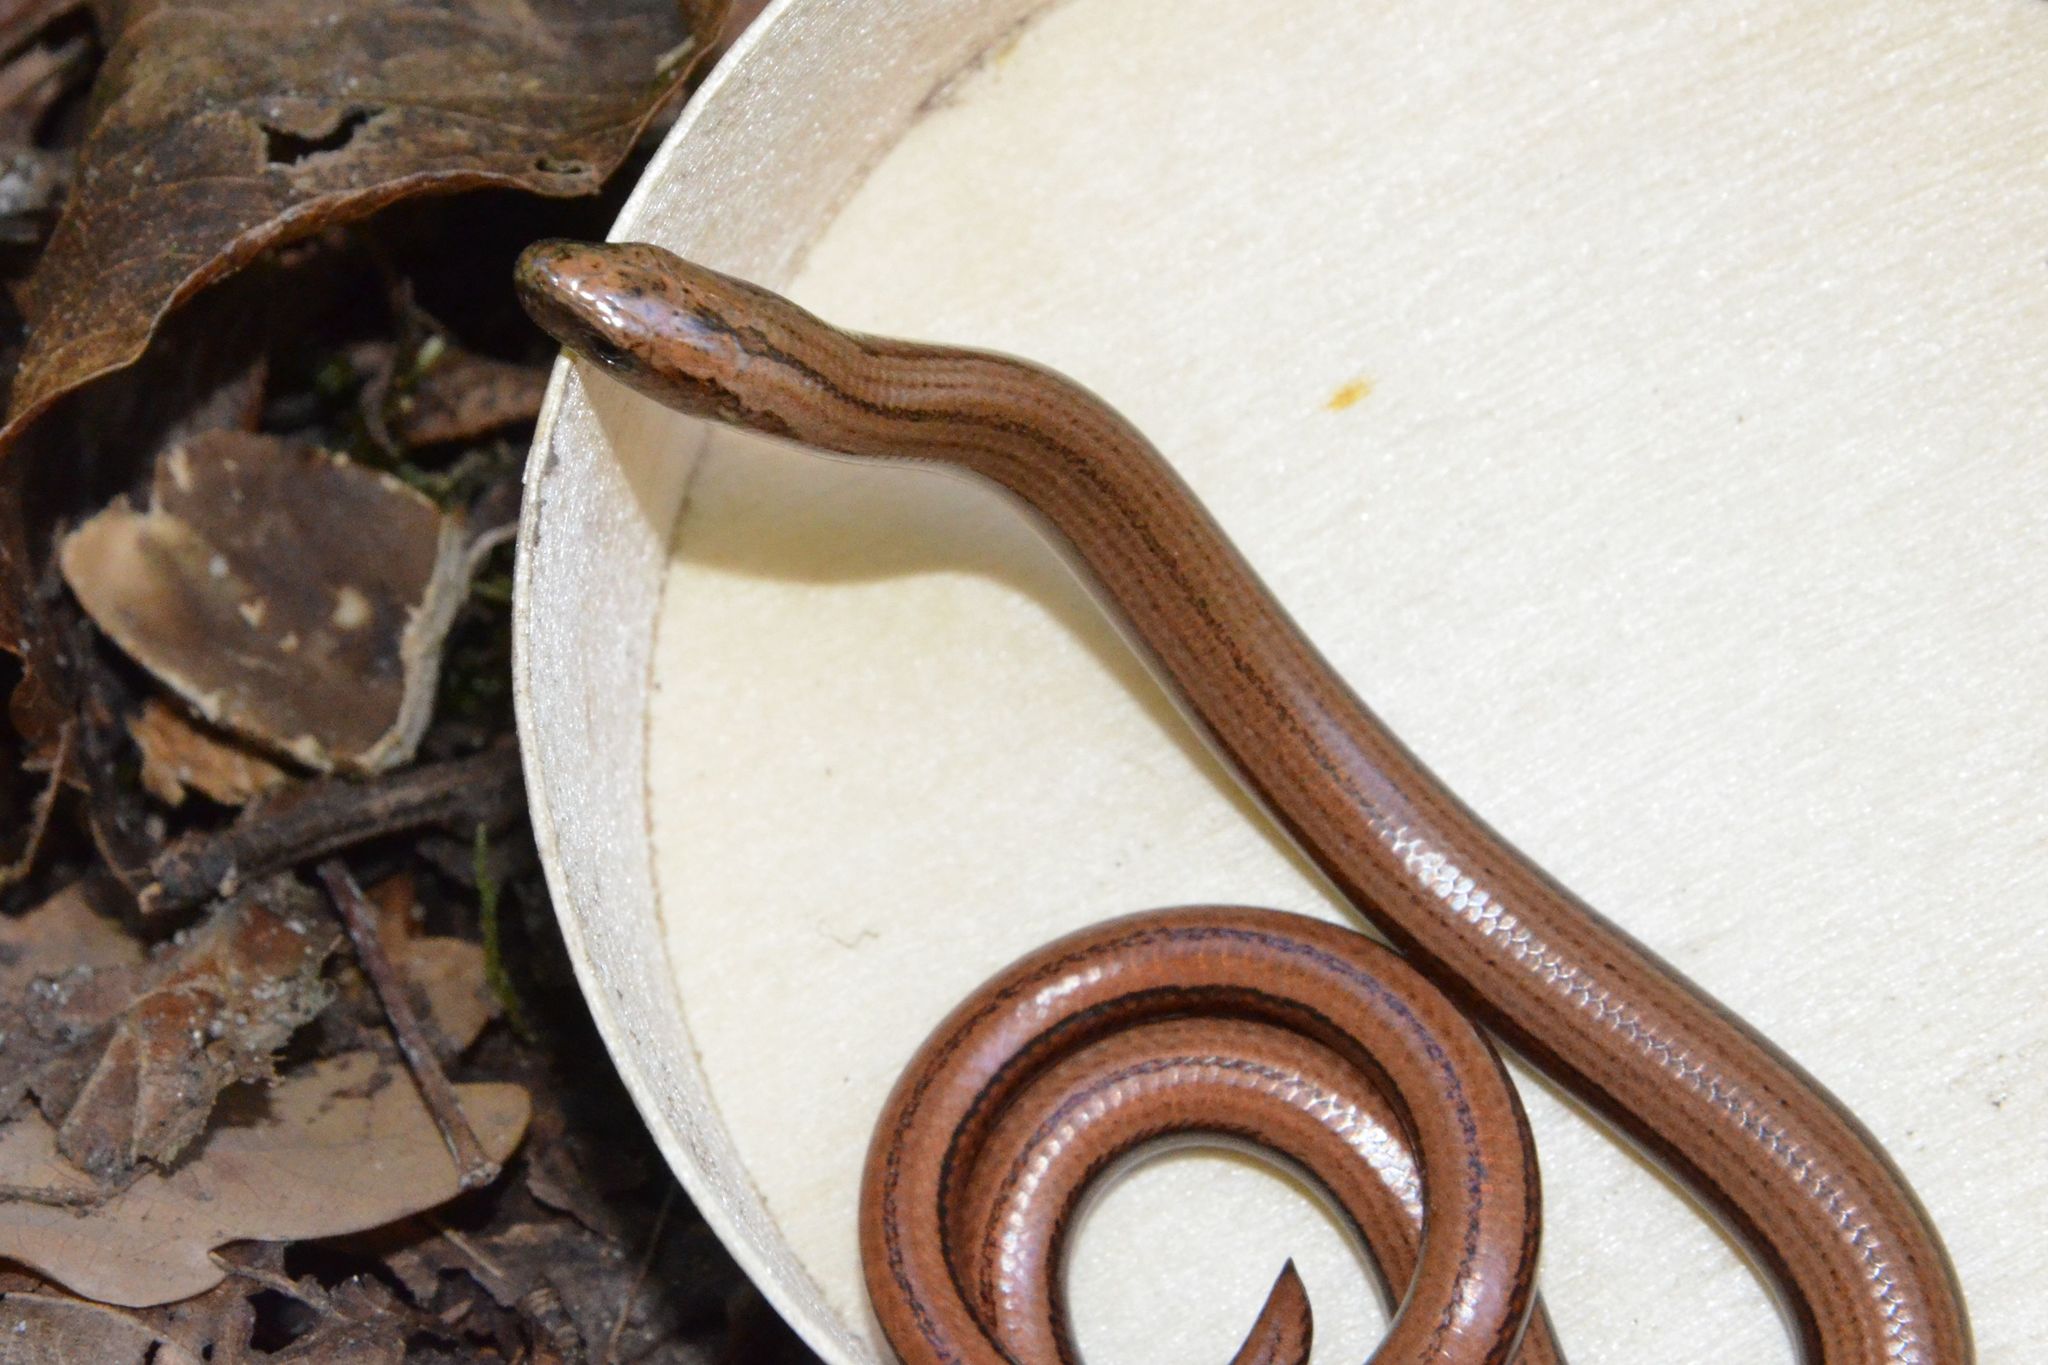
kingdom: Animalia
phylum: Chordata
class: Squamata
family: Anguidae
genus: Anguis
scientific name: Anguis fragilis
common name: Slow worm
